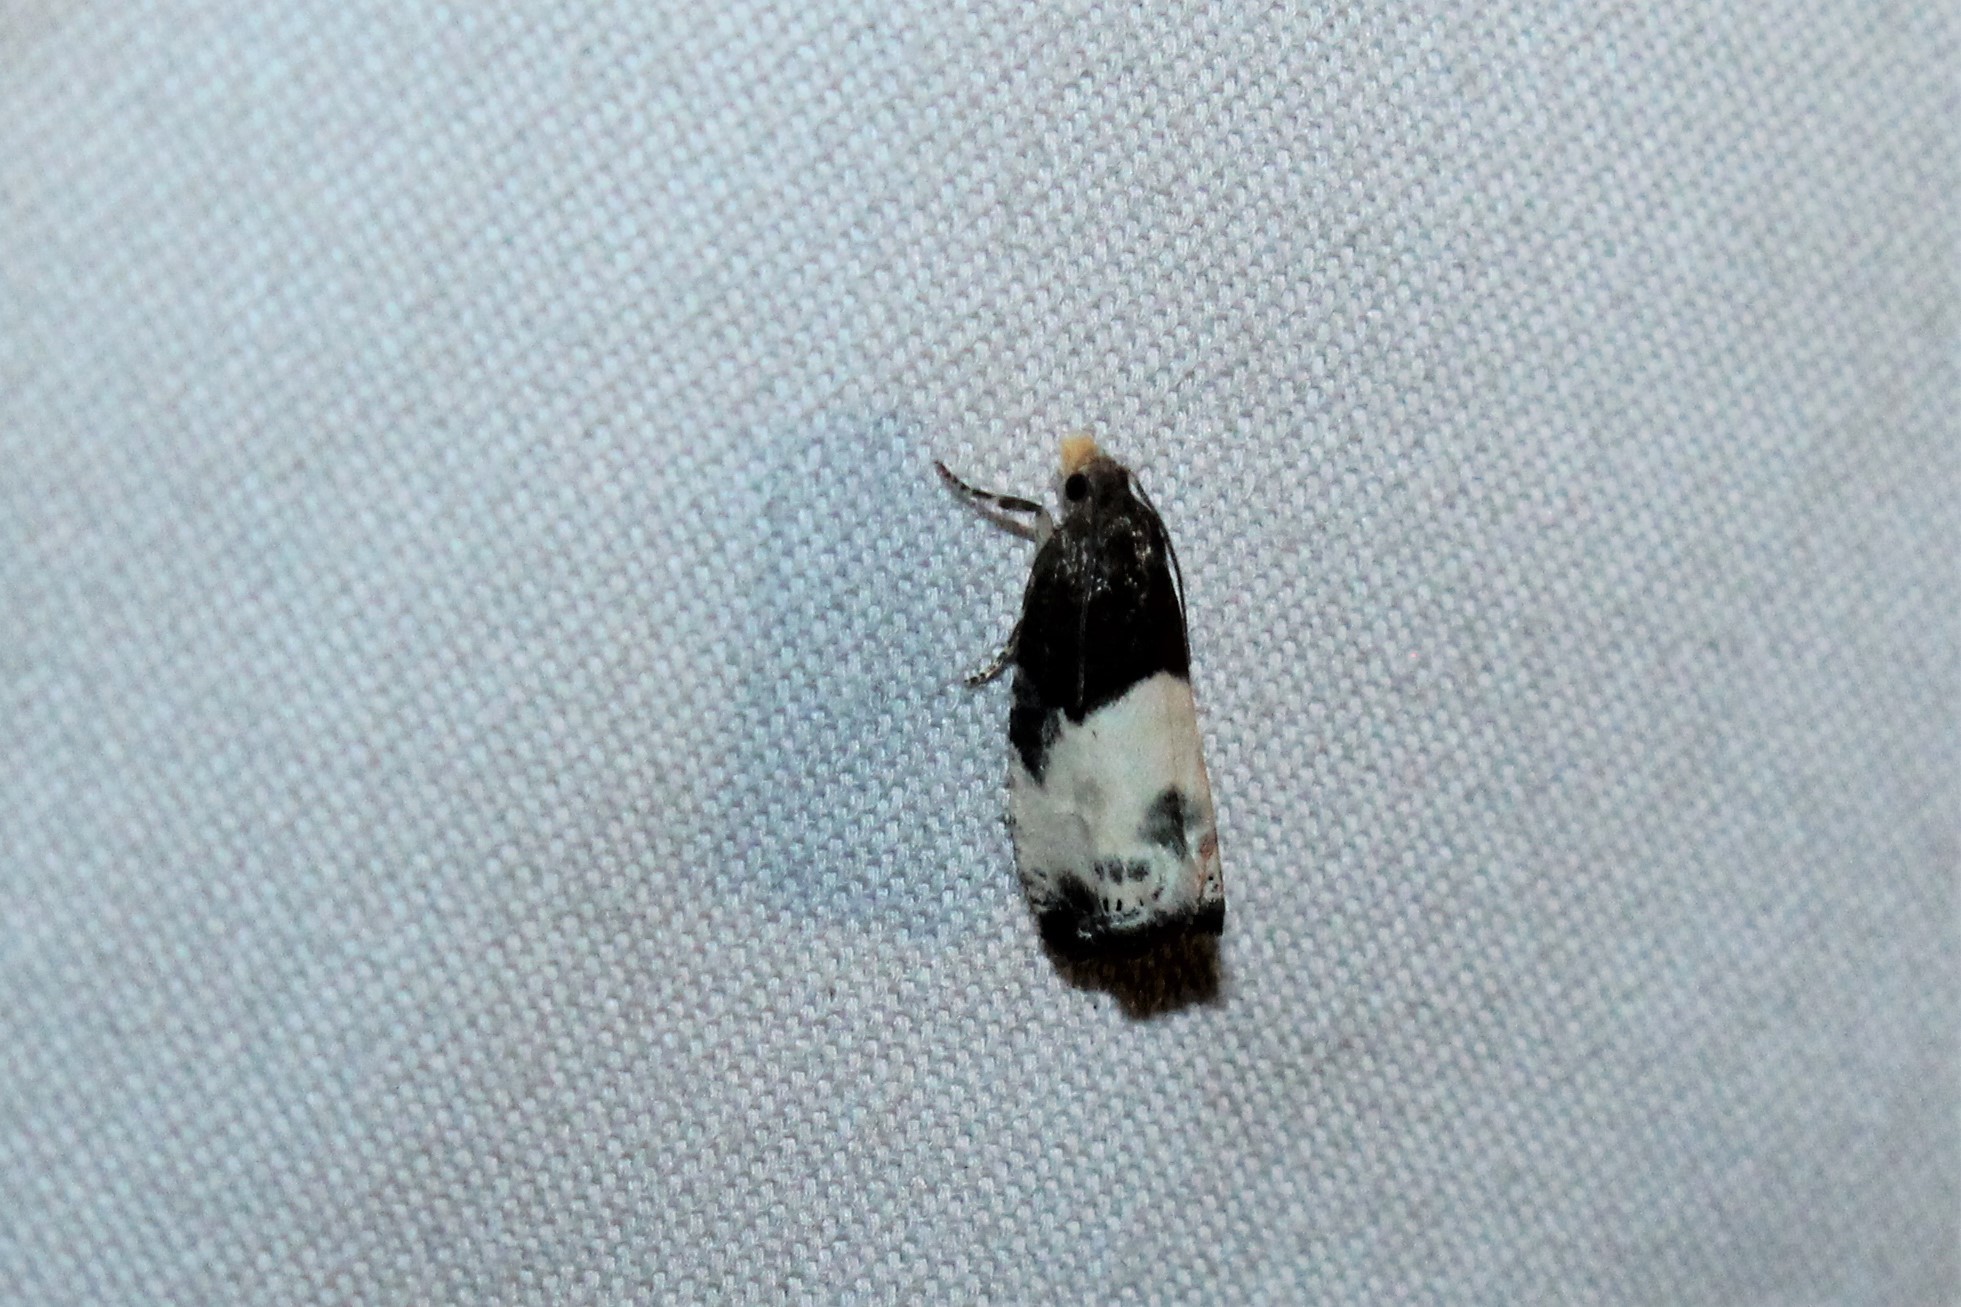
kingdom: Animalia
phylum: Arthropoda
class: Insecta
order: Lepidoptera
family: Tortricidae
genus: Notocelia
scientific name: Notocelia cynosbatella
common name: Yellow-faced bell moth
